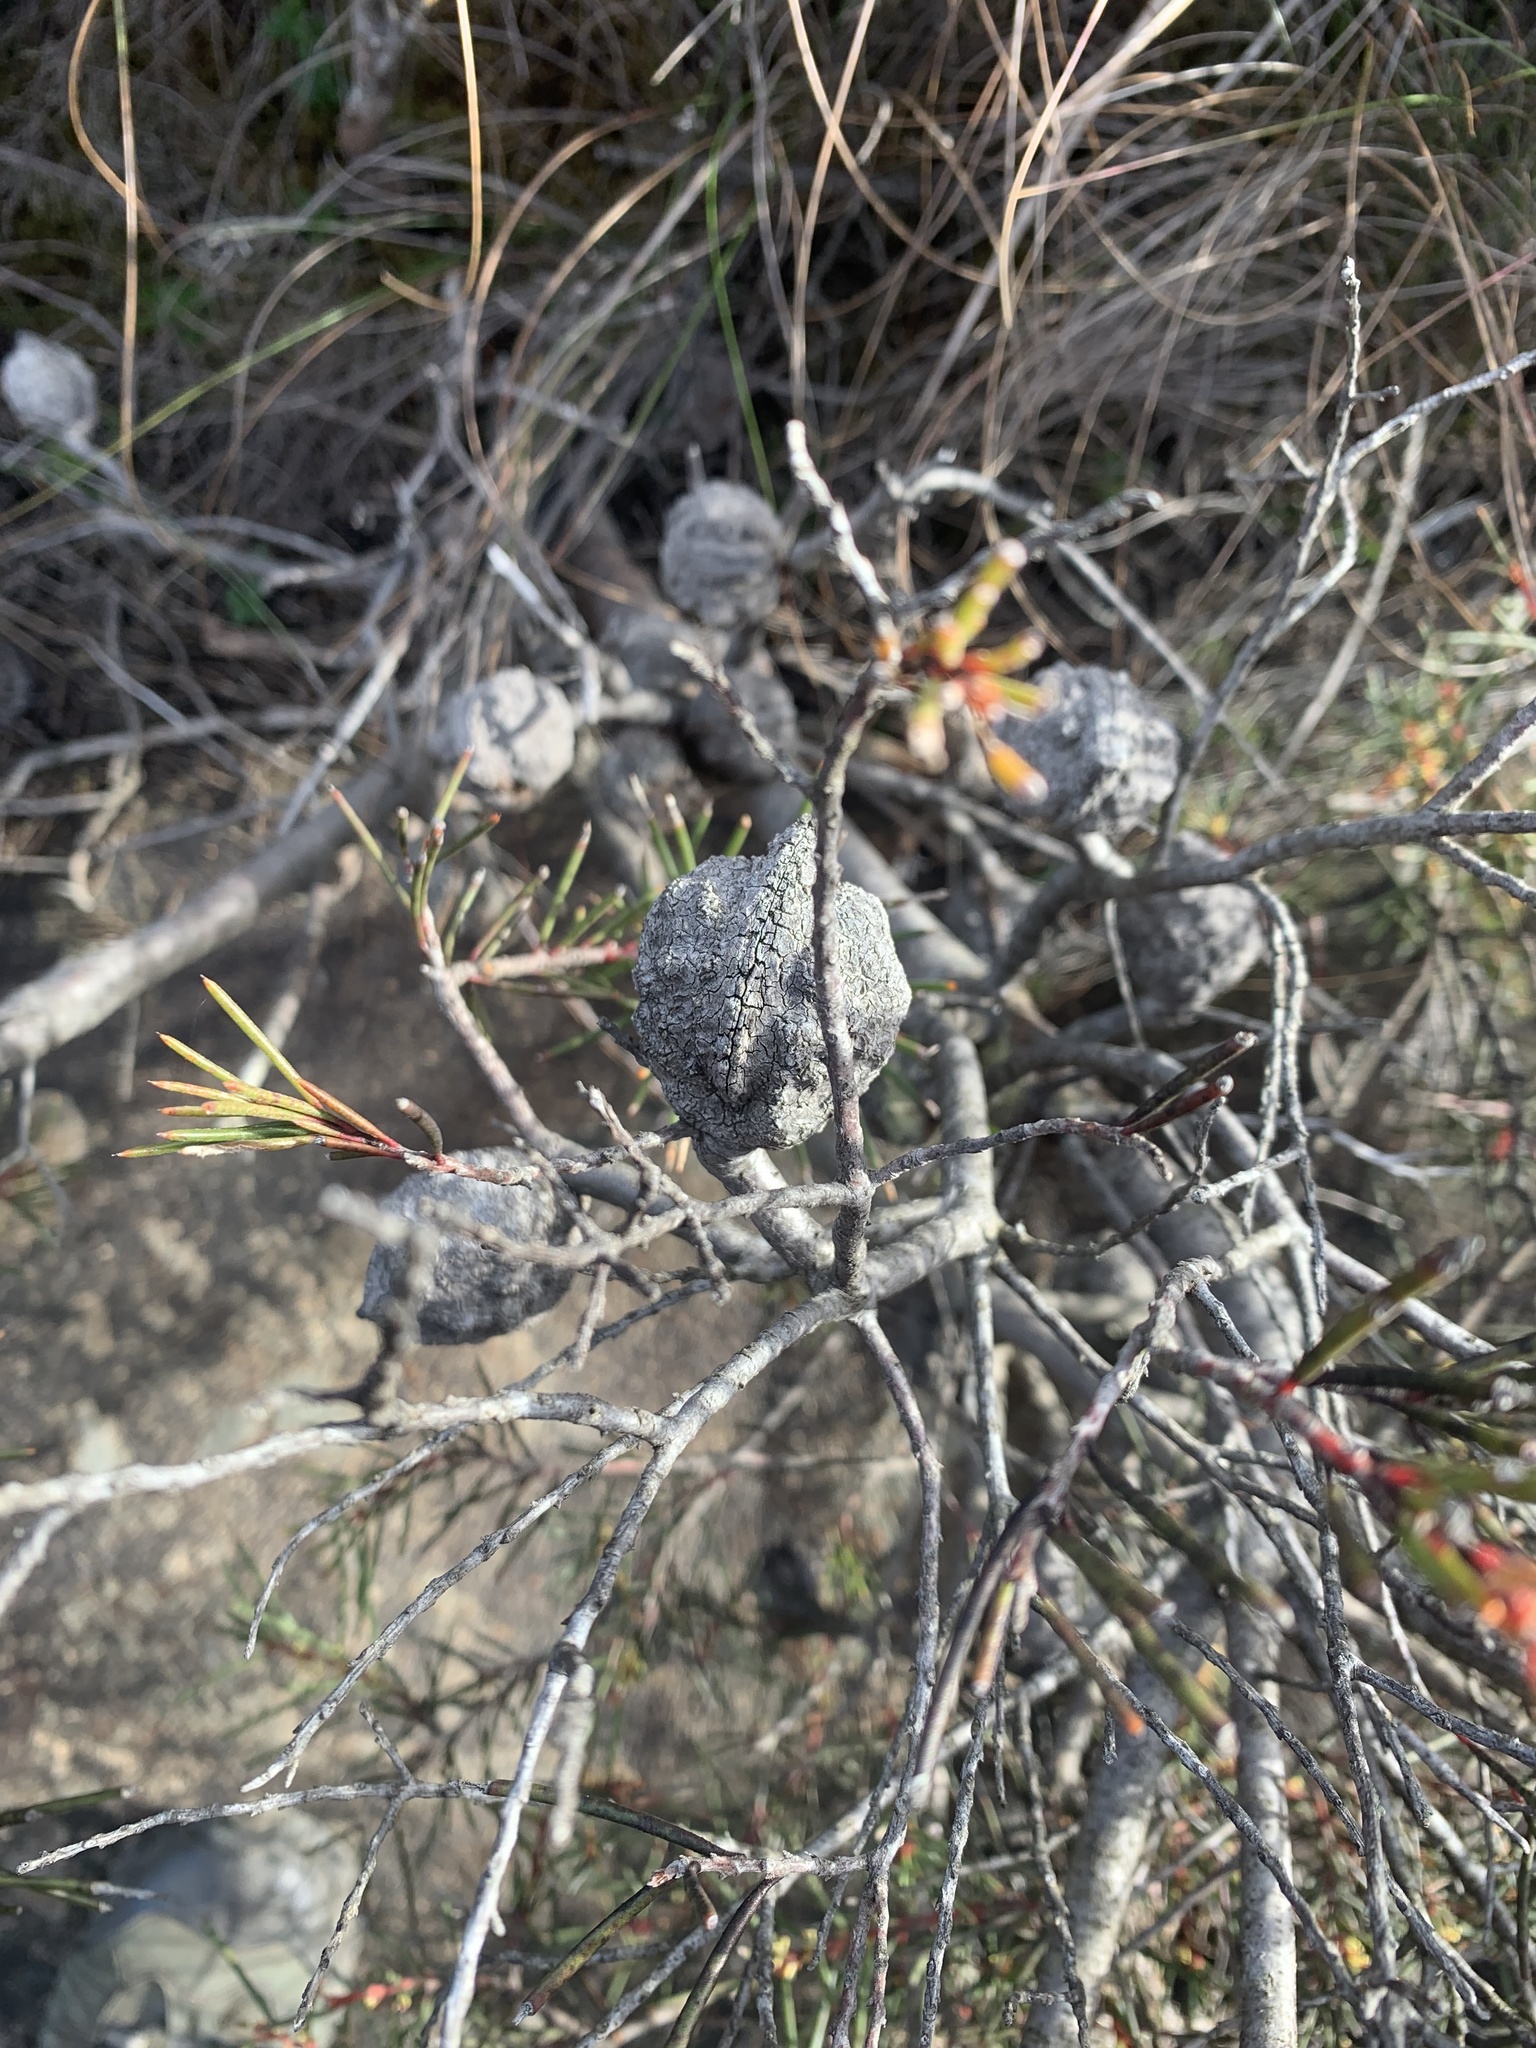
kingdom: Plantae
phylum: Tracheophyta
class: Magnoliopsida
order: Proteales
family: Proteaceae
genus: Hakea
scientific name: Hakea pachyphylla
